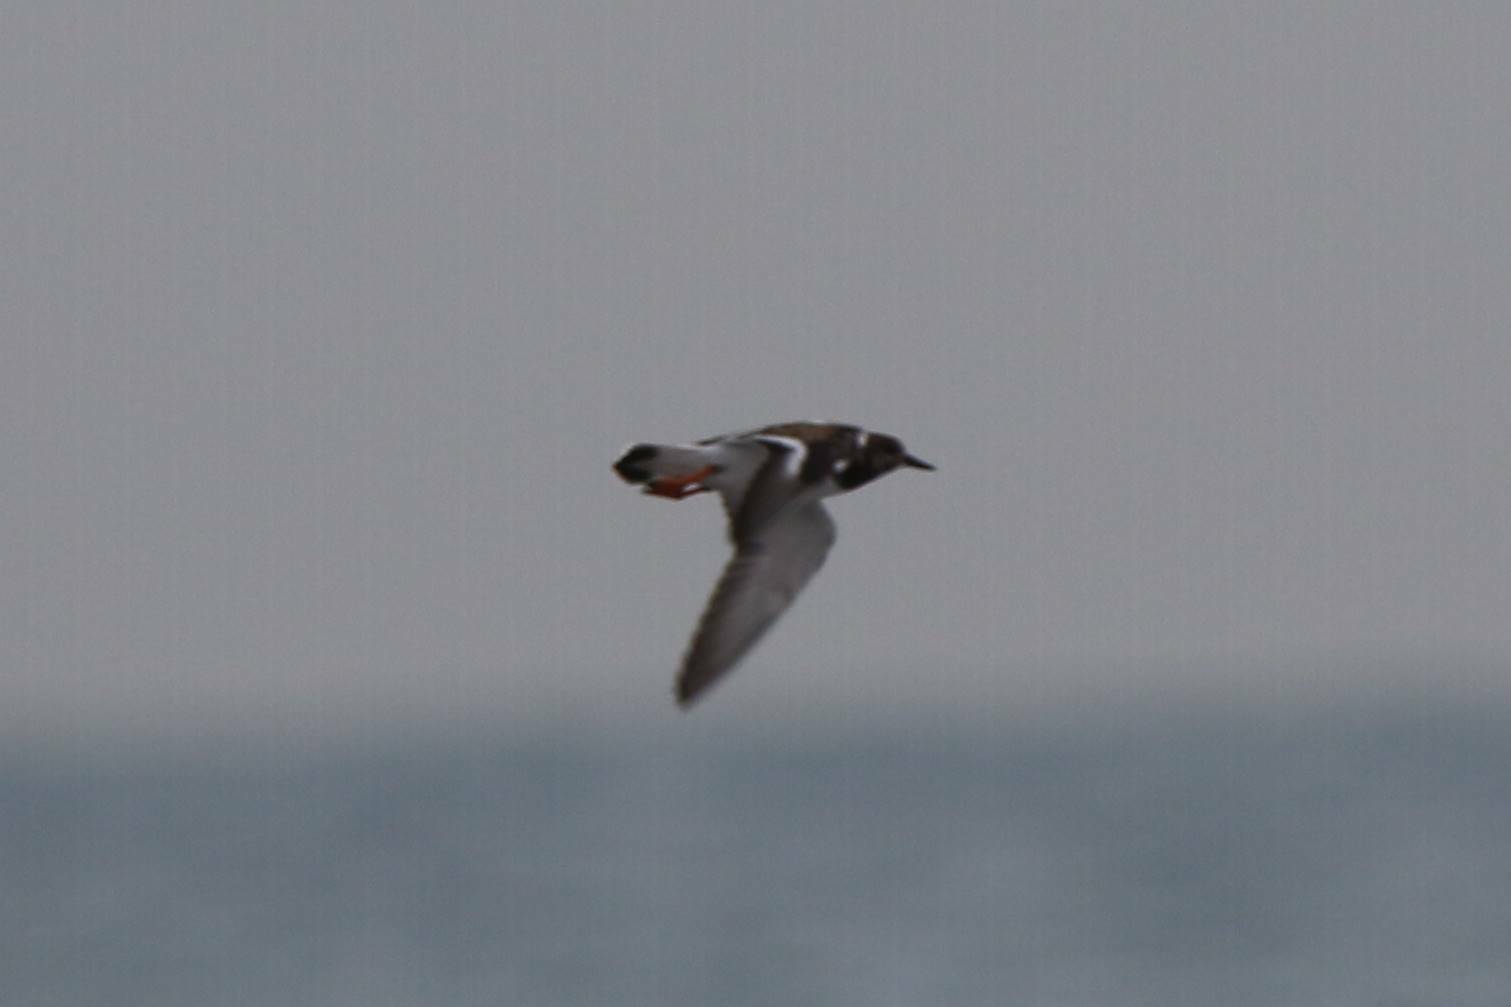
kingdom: Animalia
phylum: Chordata
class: Aves
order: Charadriiformes
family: Scolopacidae
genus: Arenaria
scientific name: Arenaria interpres
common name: Ruddy turnstone
